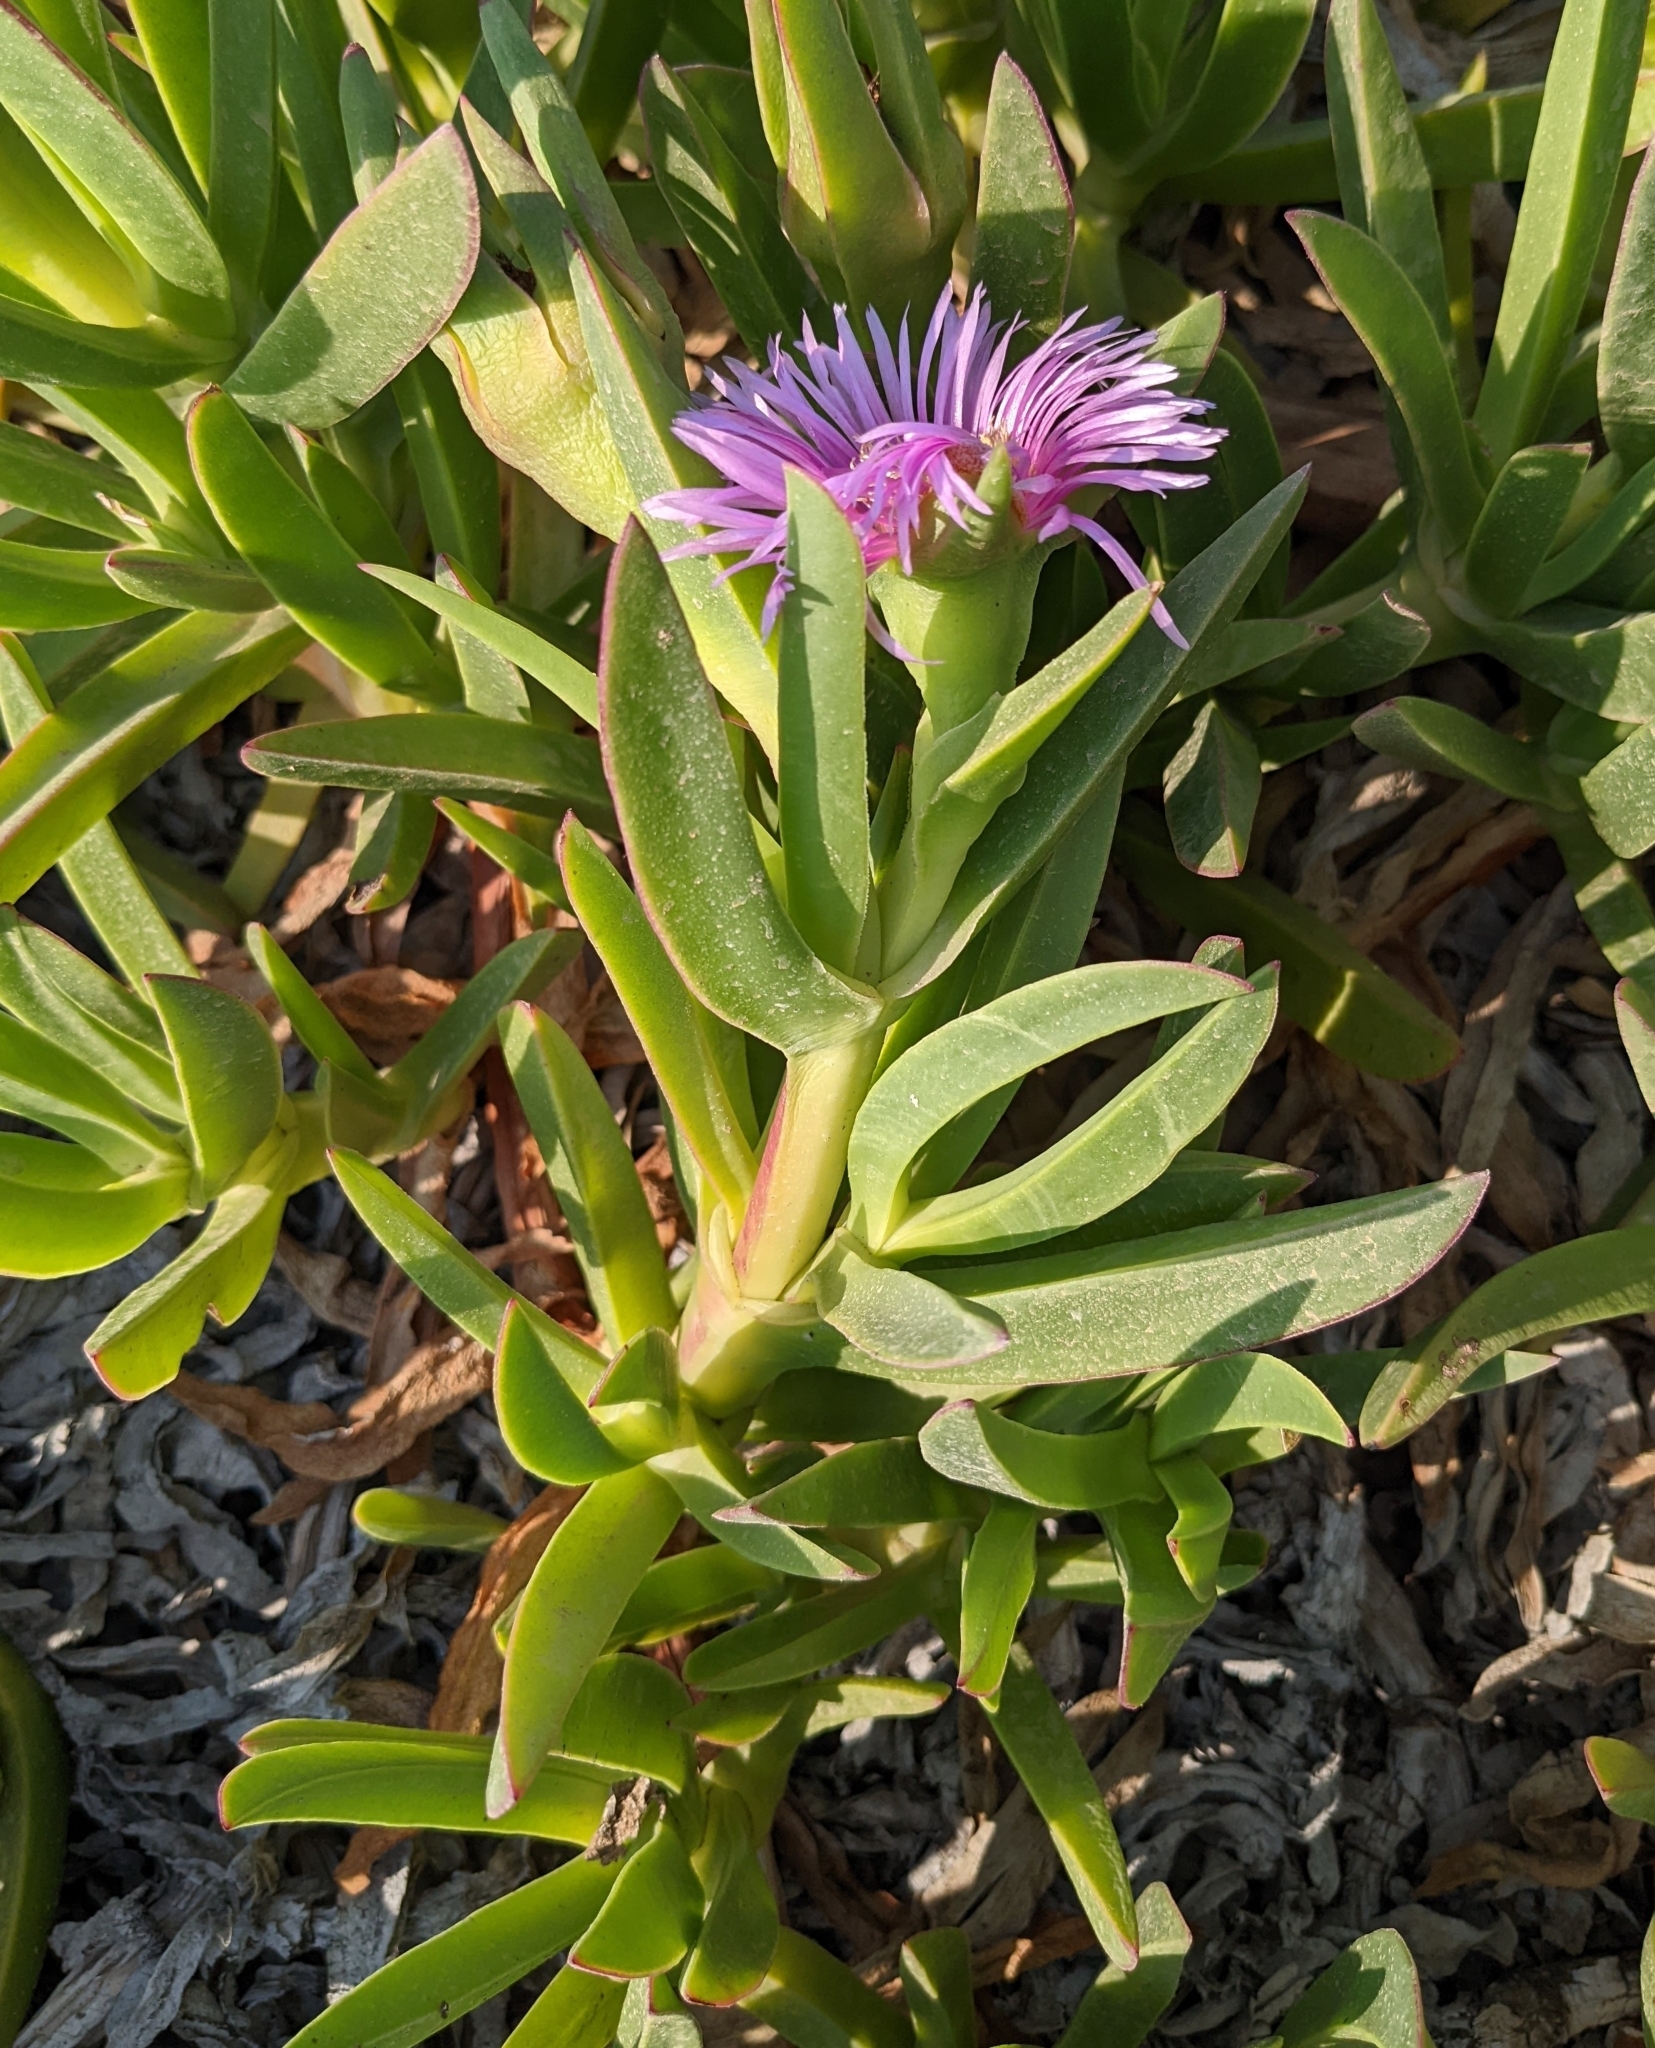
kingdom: Plantae
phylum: Tracheophyta
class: Magnoliopsida
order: Caryophyllales
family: Aizoaceae
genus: Carpobrotus
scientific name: Carpobrotus acinaciformis
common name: Sally-my-handsome
